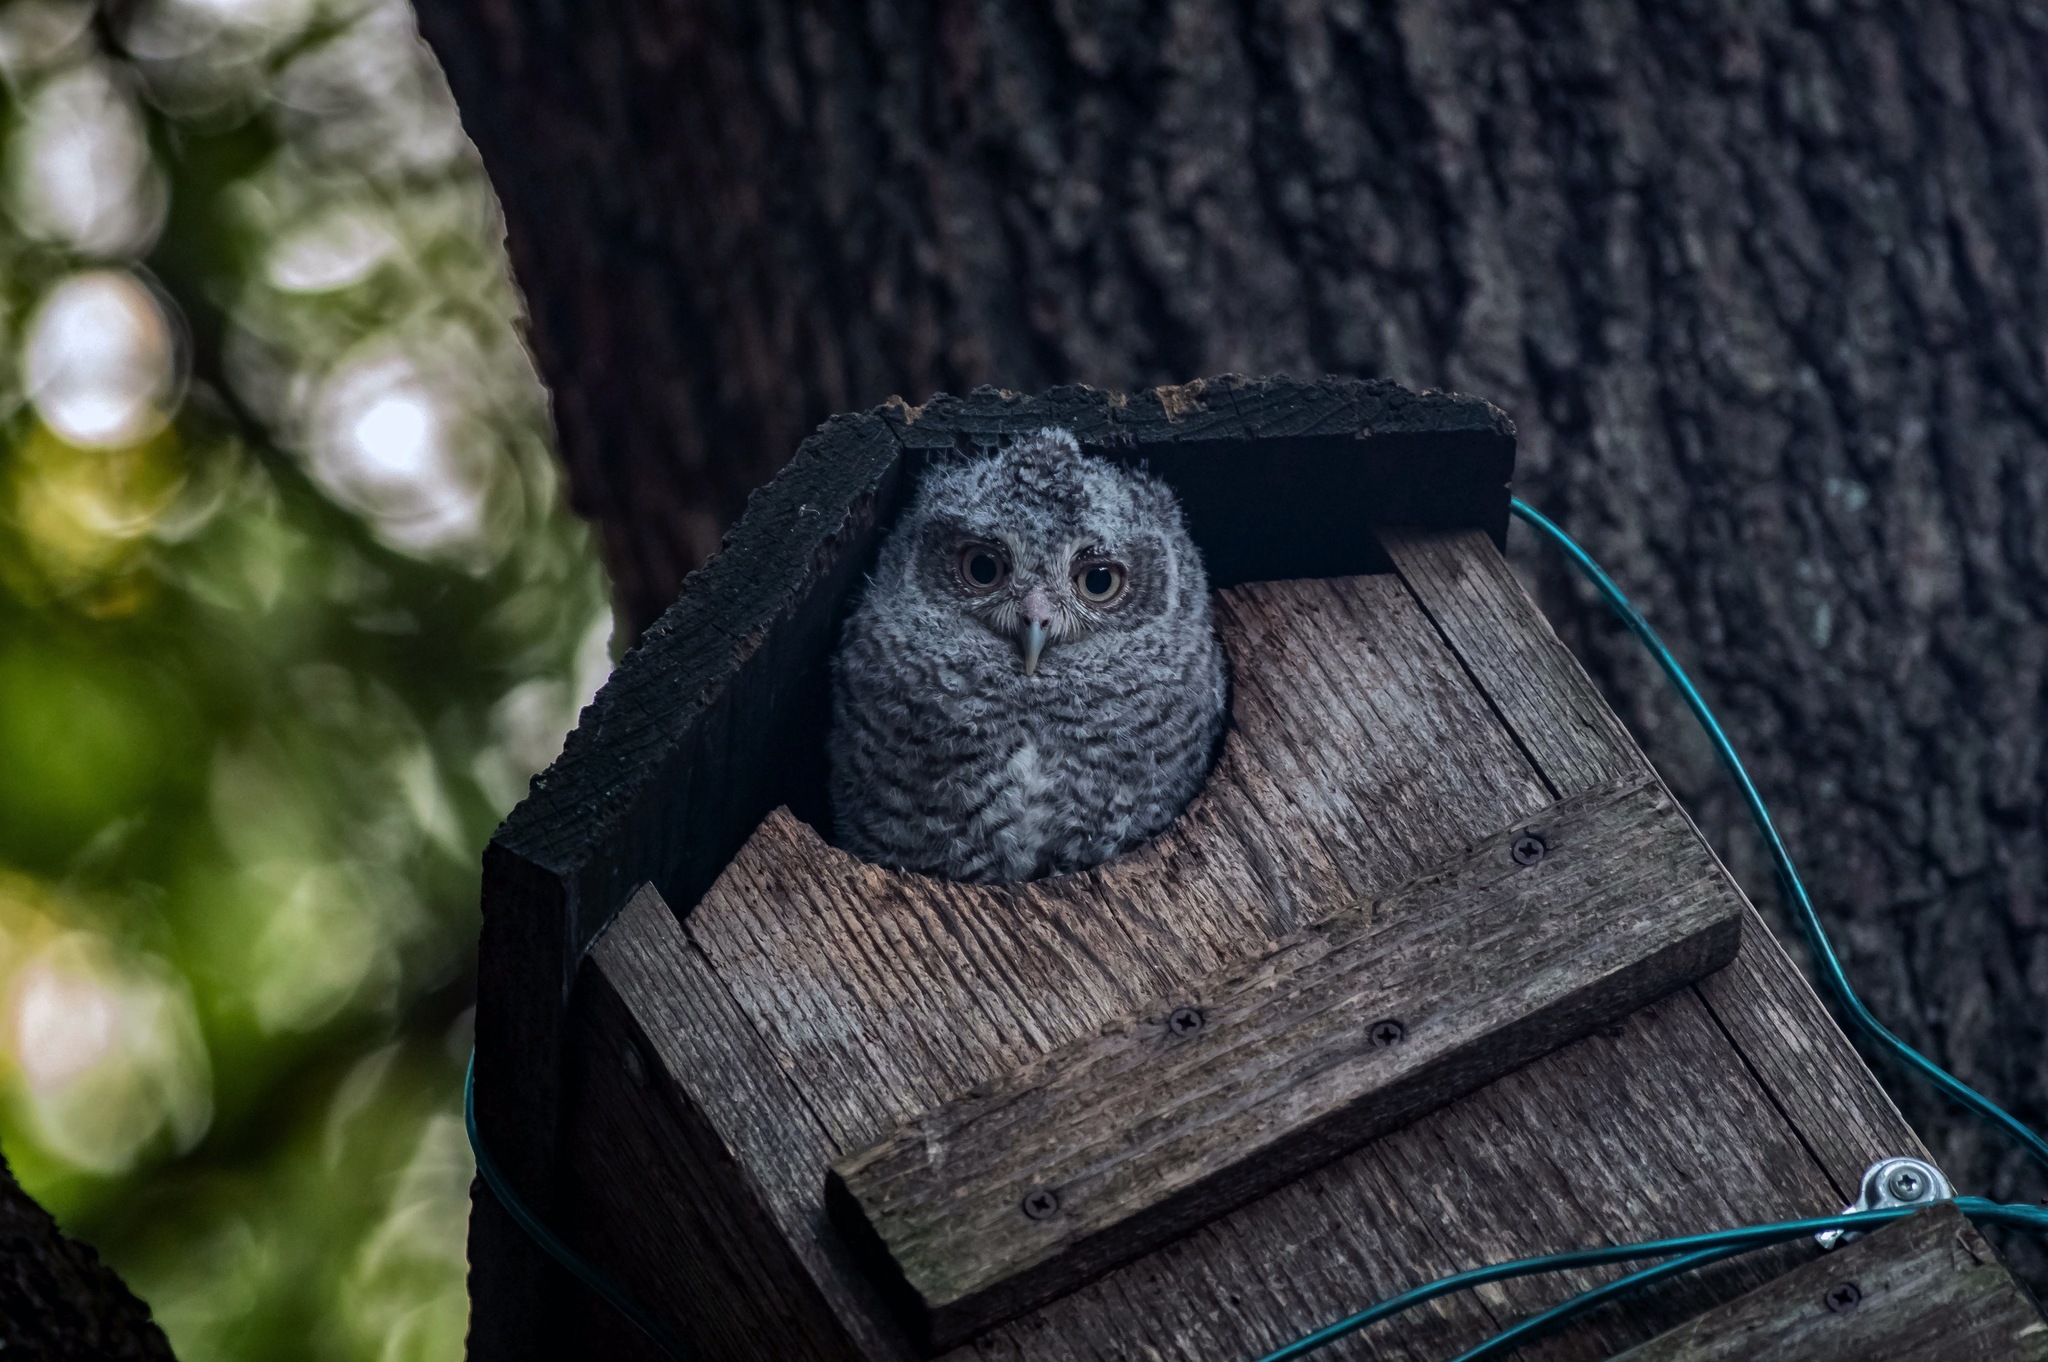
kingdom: Animalia
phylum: Chordata
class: Aves
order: Strigiformes
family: Strigidae
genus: Megascops
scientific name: Megascops asio
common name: Eastern screech-owl
